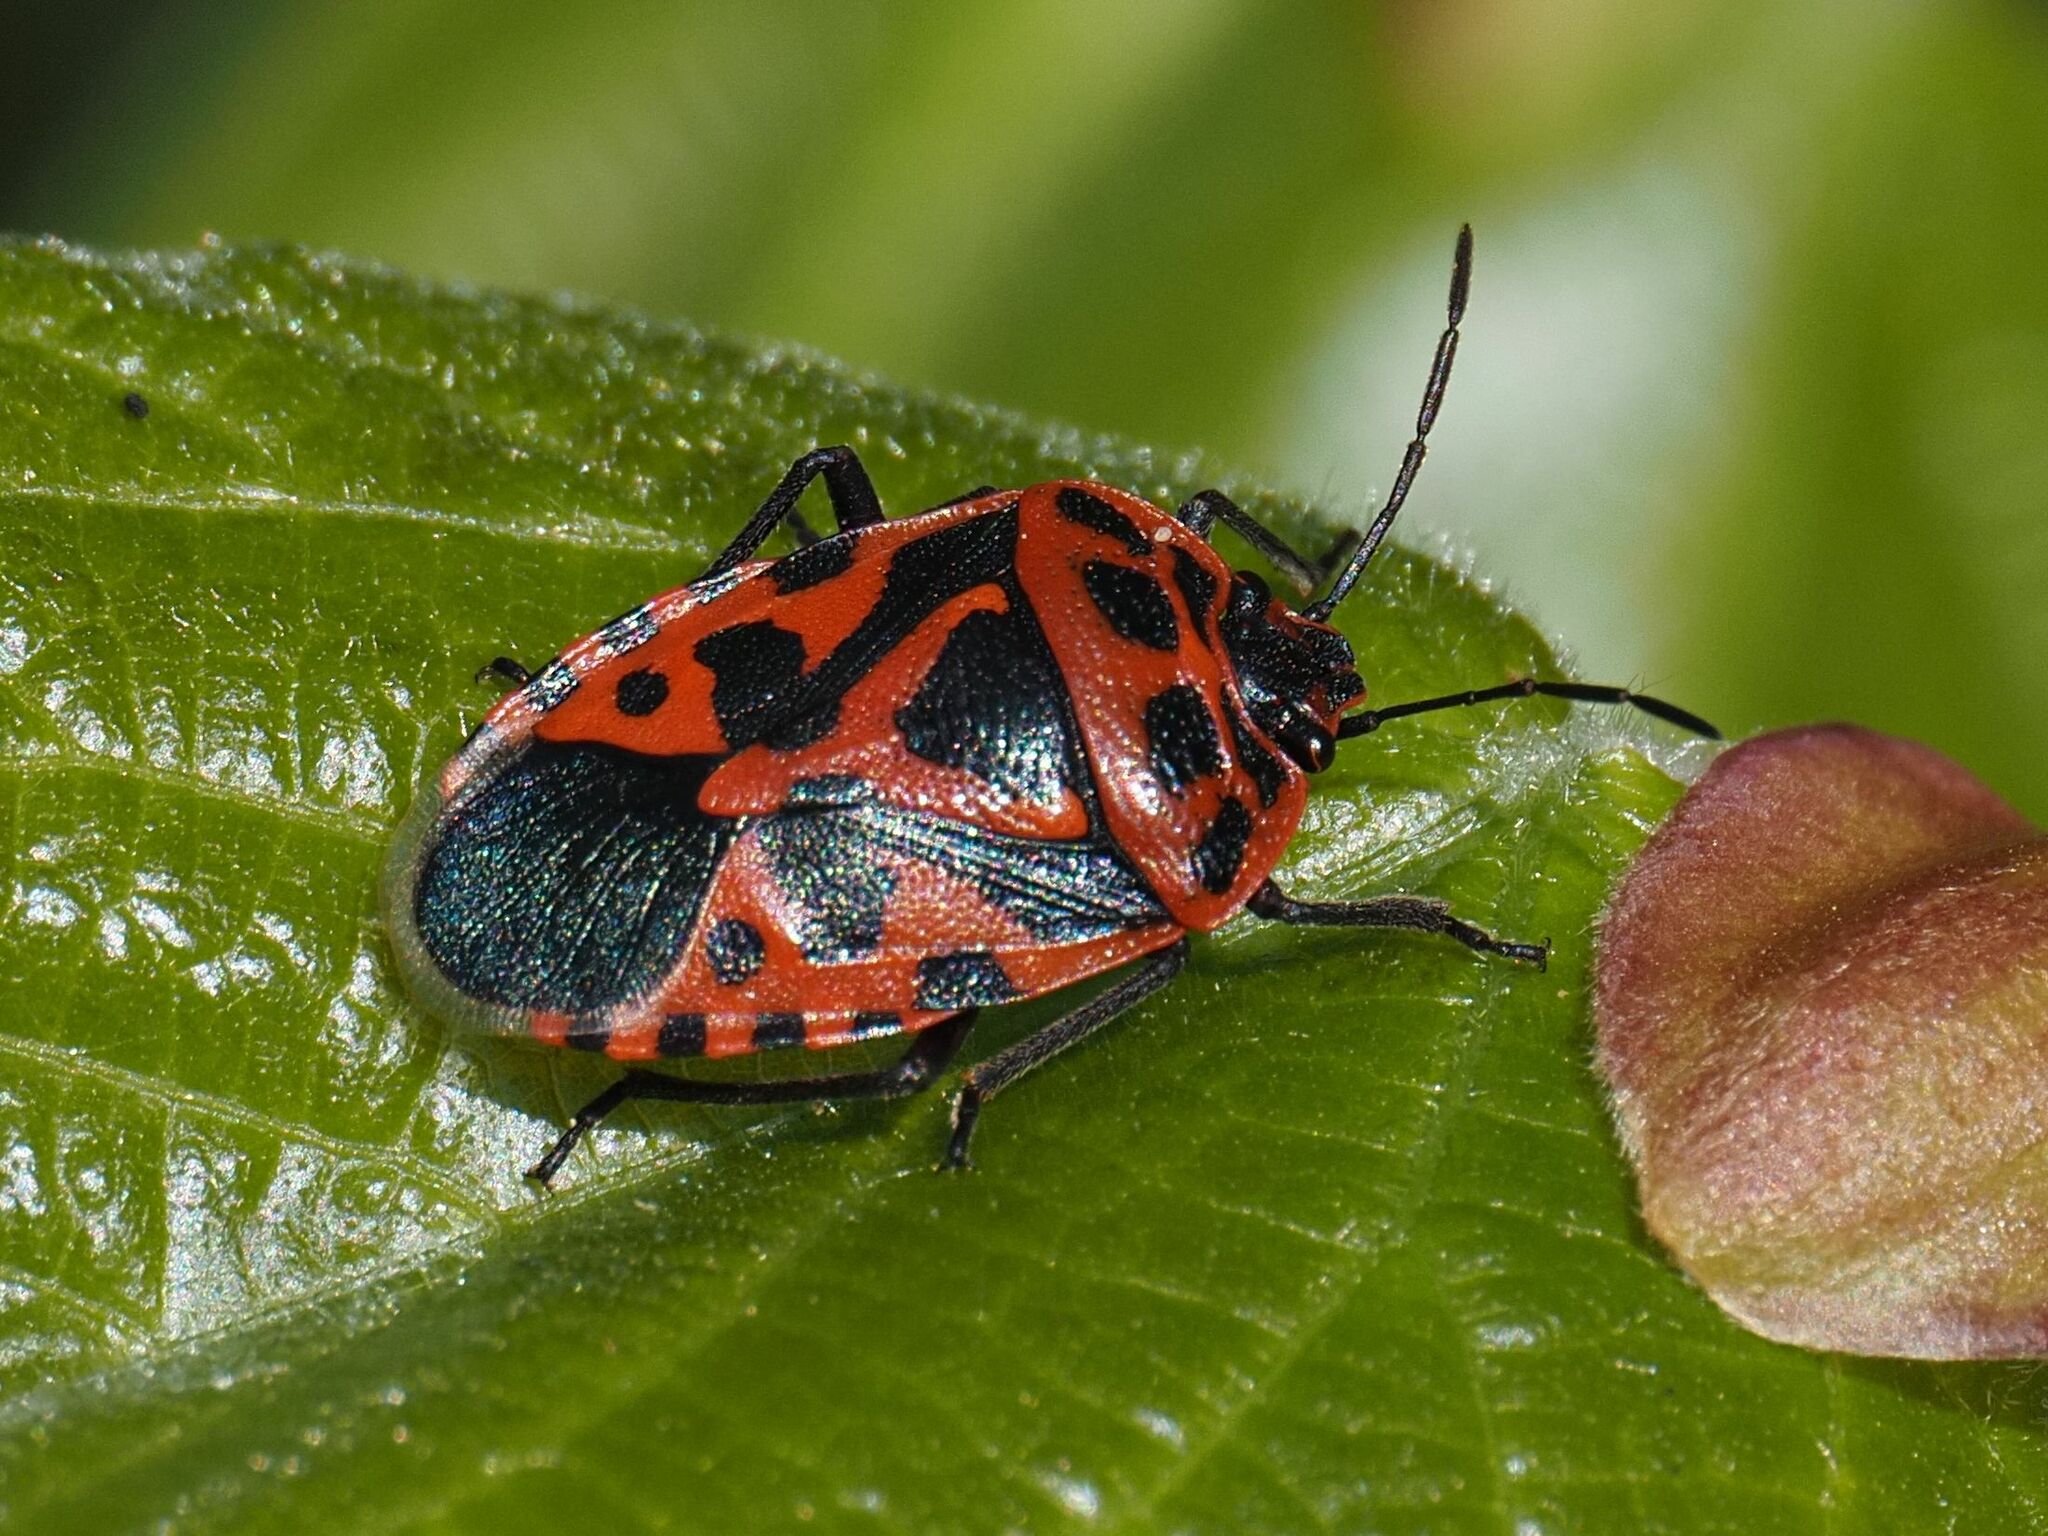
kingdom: Animalia
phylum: Arthropoda
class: Insecta
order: Hemiptera
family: Pentatomidae
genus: Eurydema
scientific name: Eurydema ventralis
